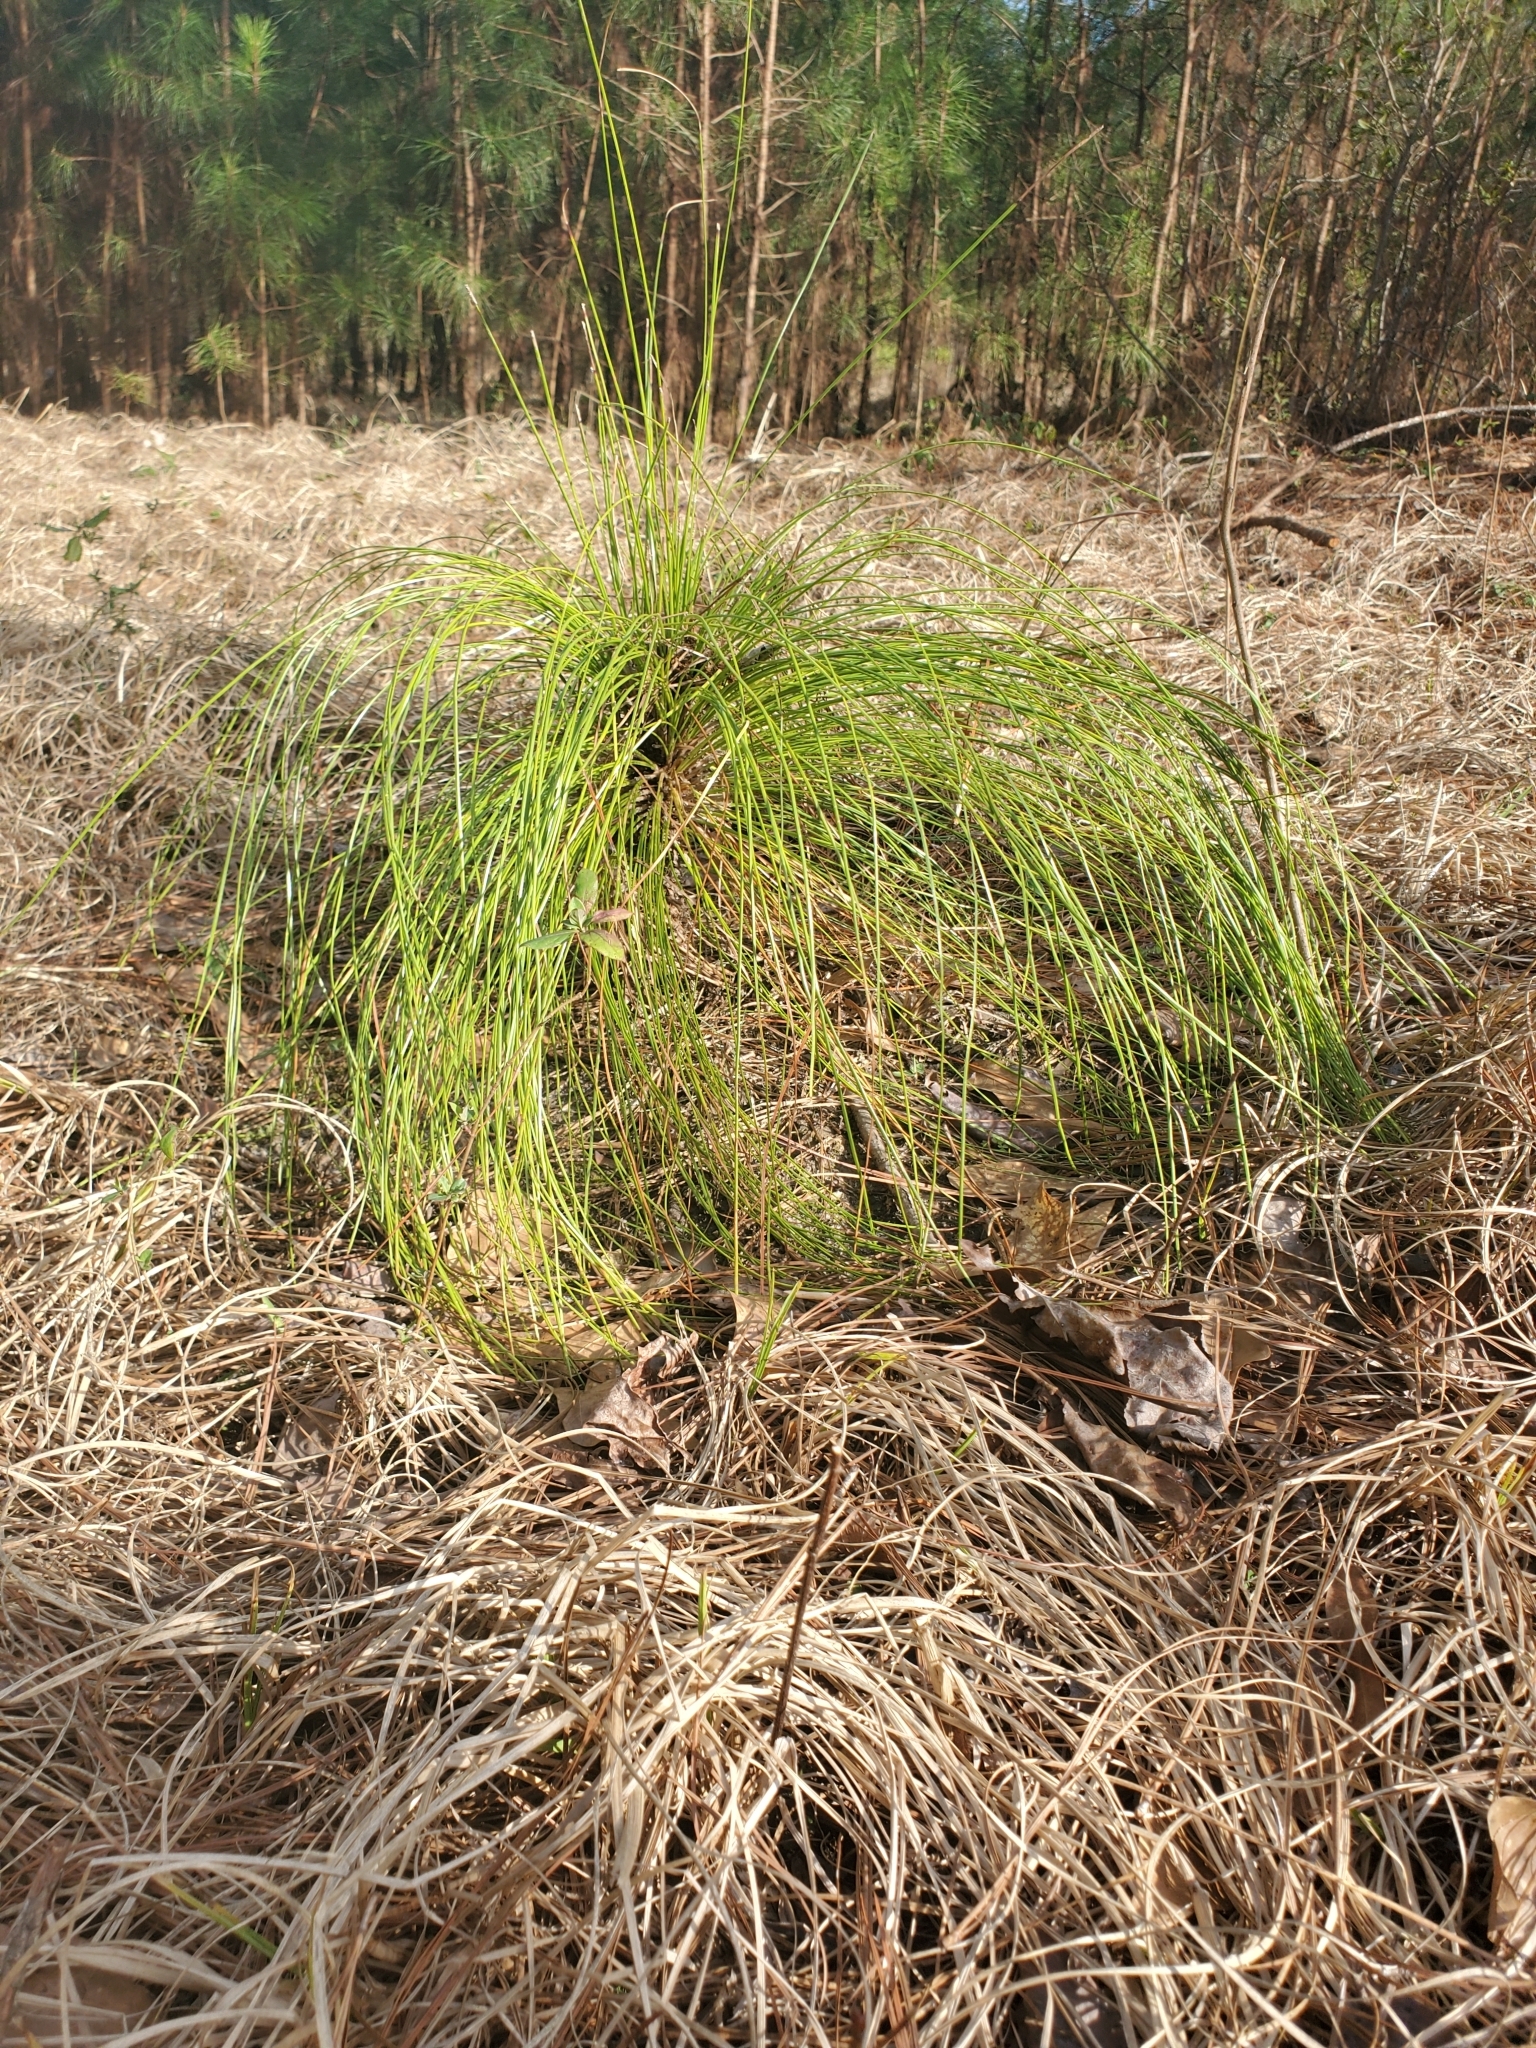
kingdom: Plantae
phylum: Tracheophyta
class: Pinopsida
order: Pinales
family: Pinaceae
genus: Pinus
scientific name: Pinus palustris
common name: Longleaf pine
